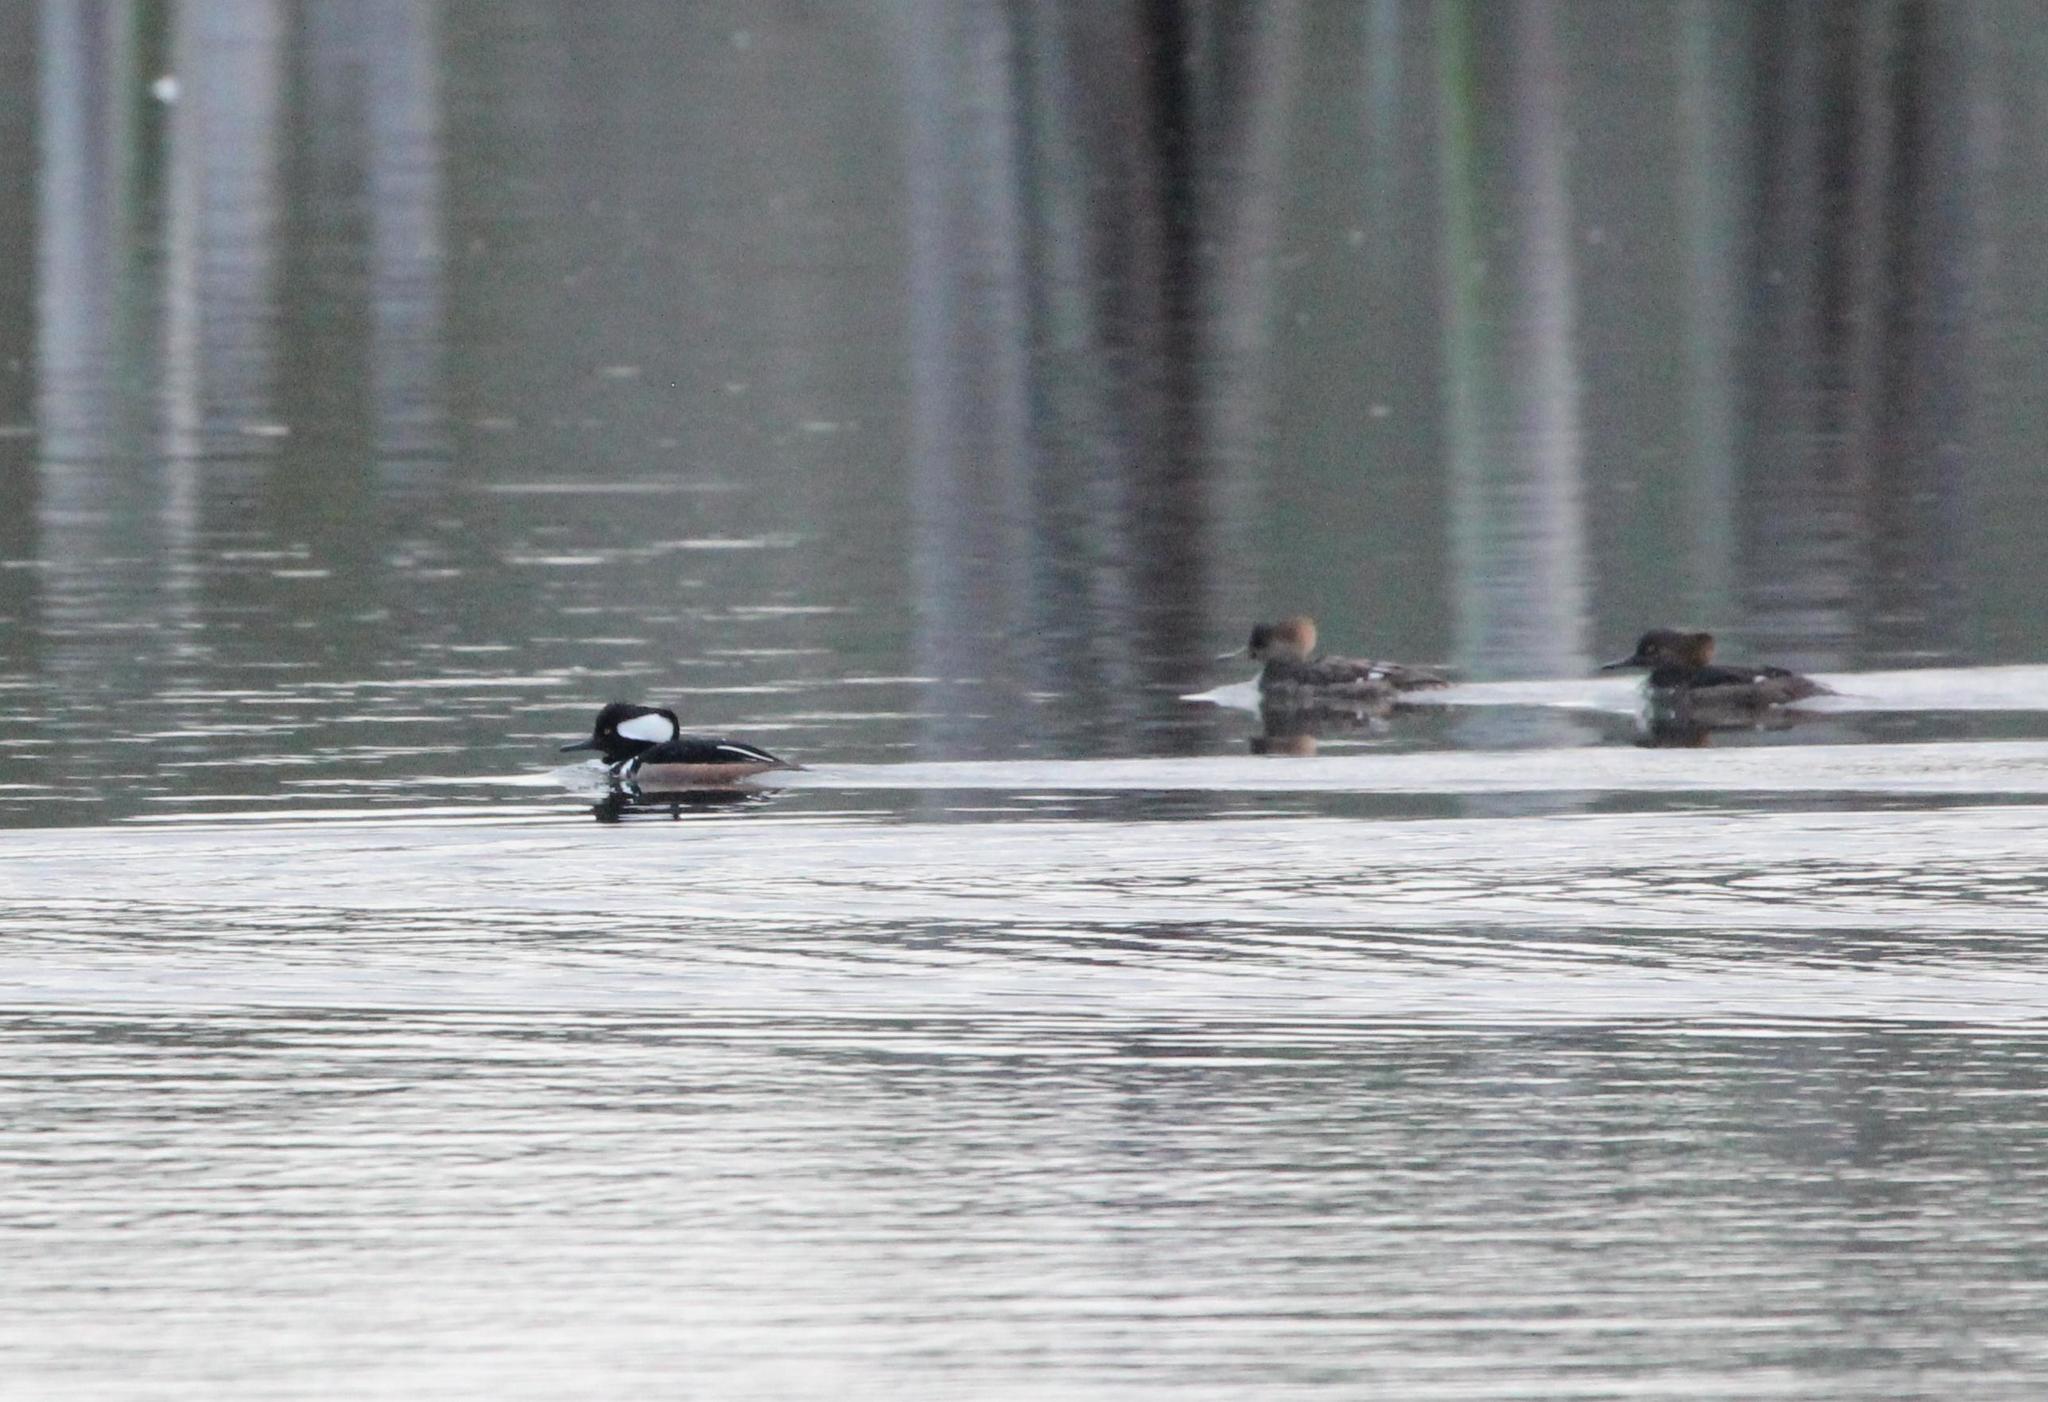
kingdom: Animalia
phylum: Chordata
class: Aves
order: Anseriformes
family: Anatidae
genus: Lophodytes
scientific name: Lophodytes cucullatus
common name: Hooded merganser
